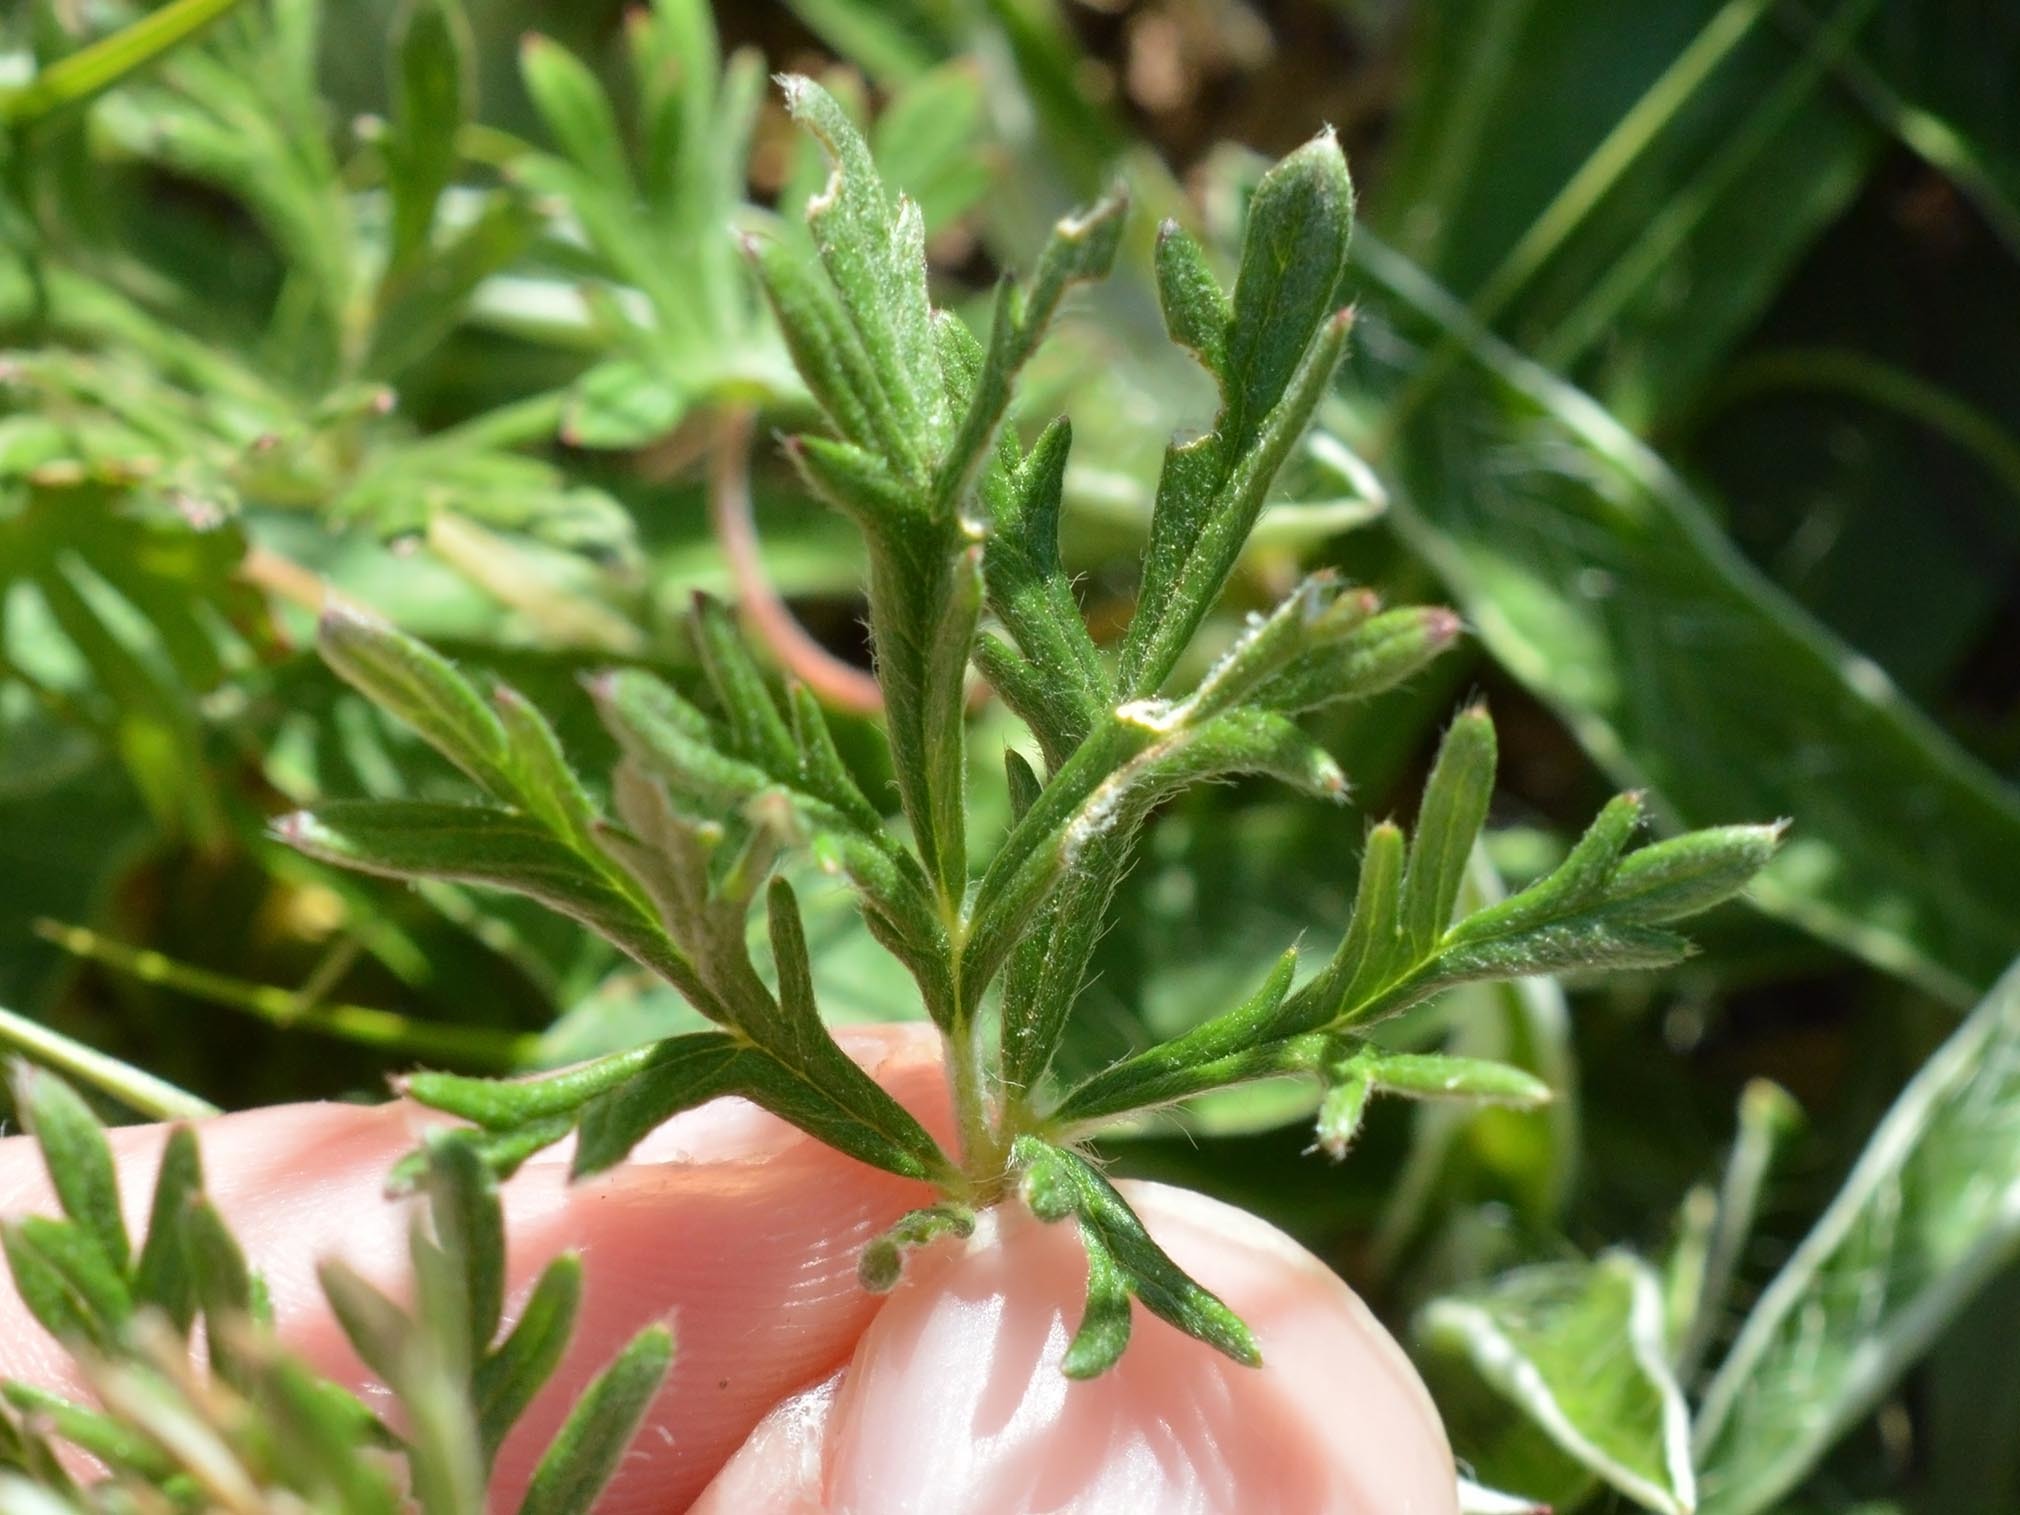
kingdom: Plantae
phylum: Tracheophyta
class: Magnoliopsida
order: Rosales
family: Rosaceae
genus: Potentilla
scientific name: Potentilla argentea
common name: Hoary cinquefoil
